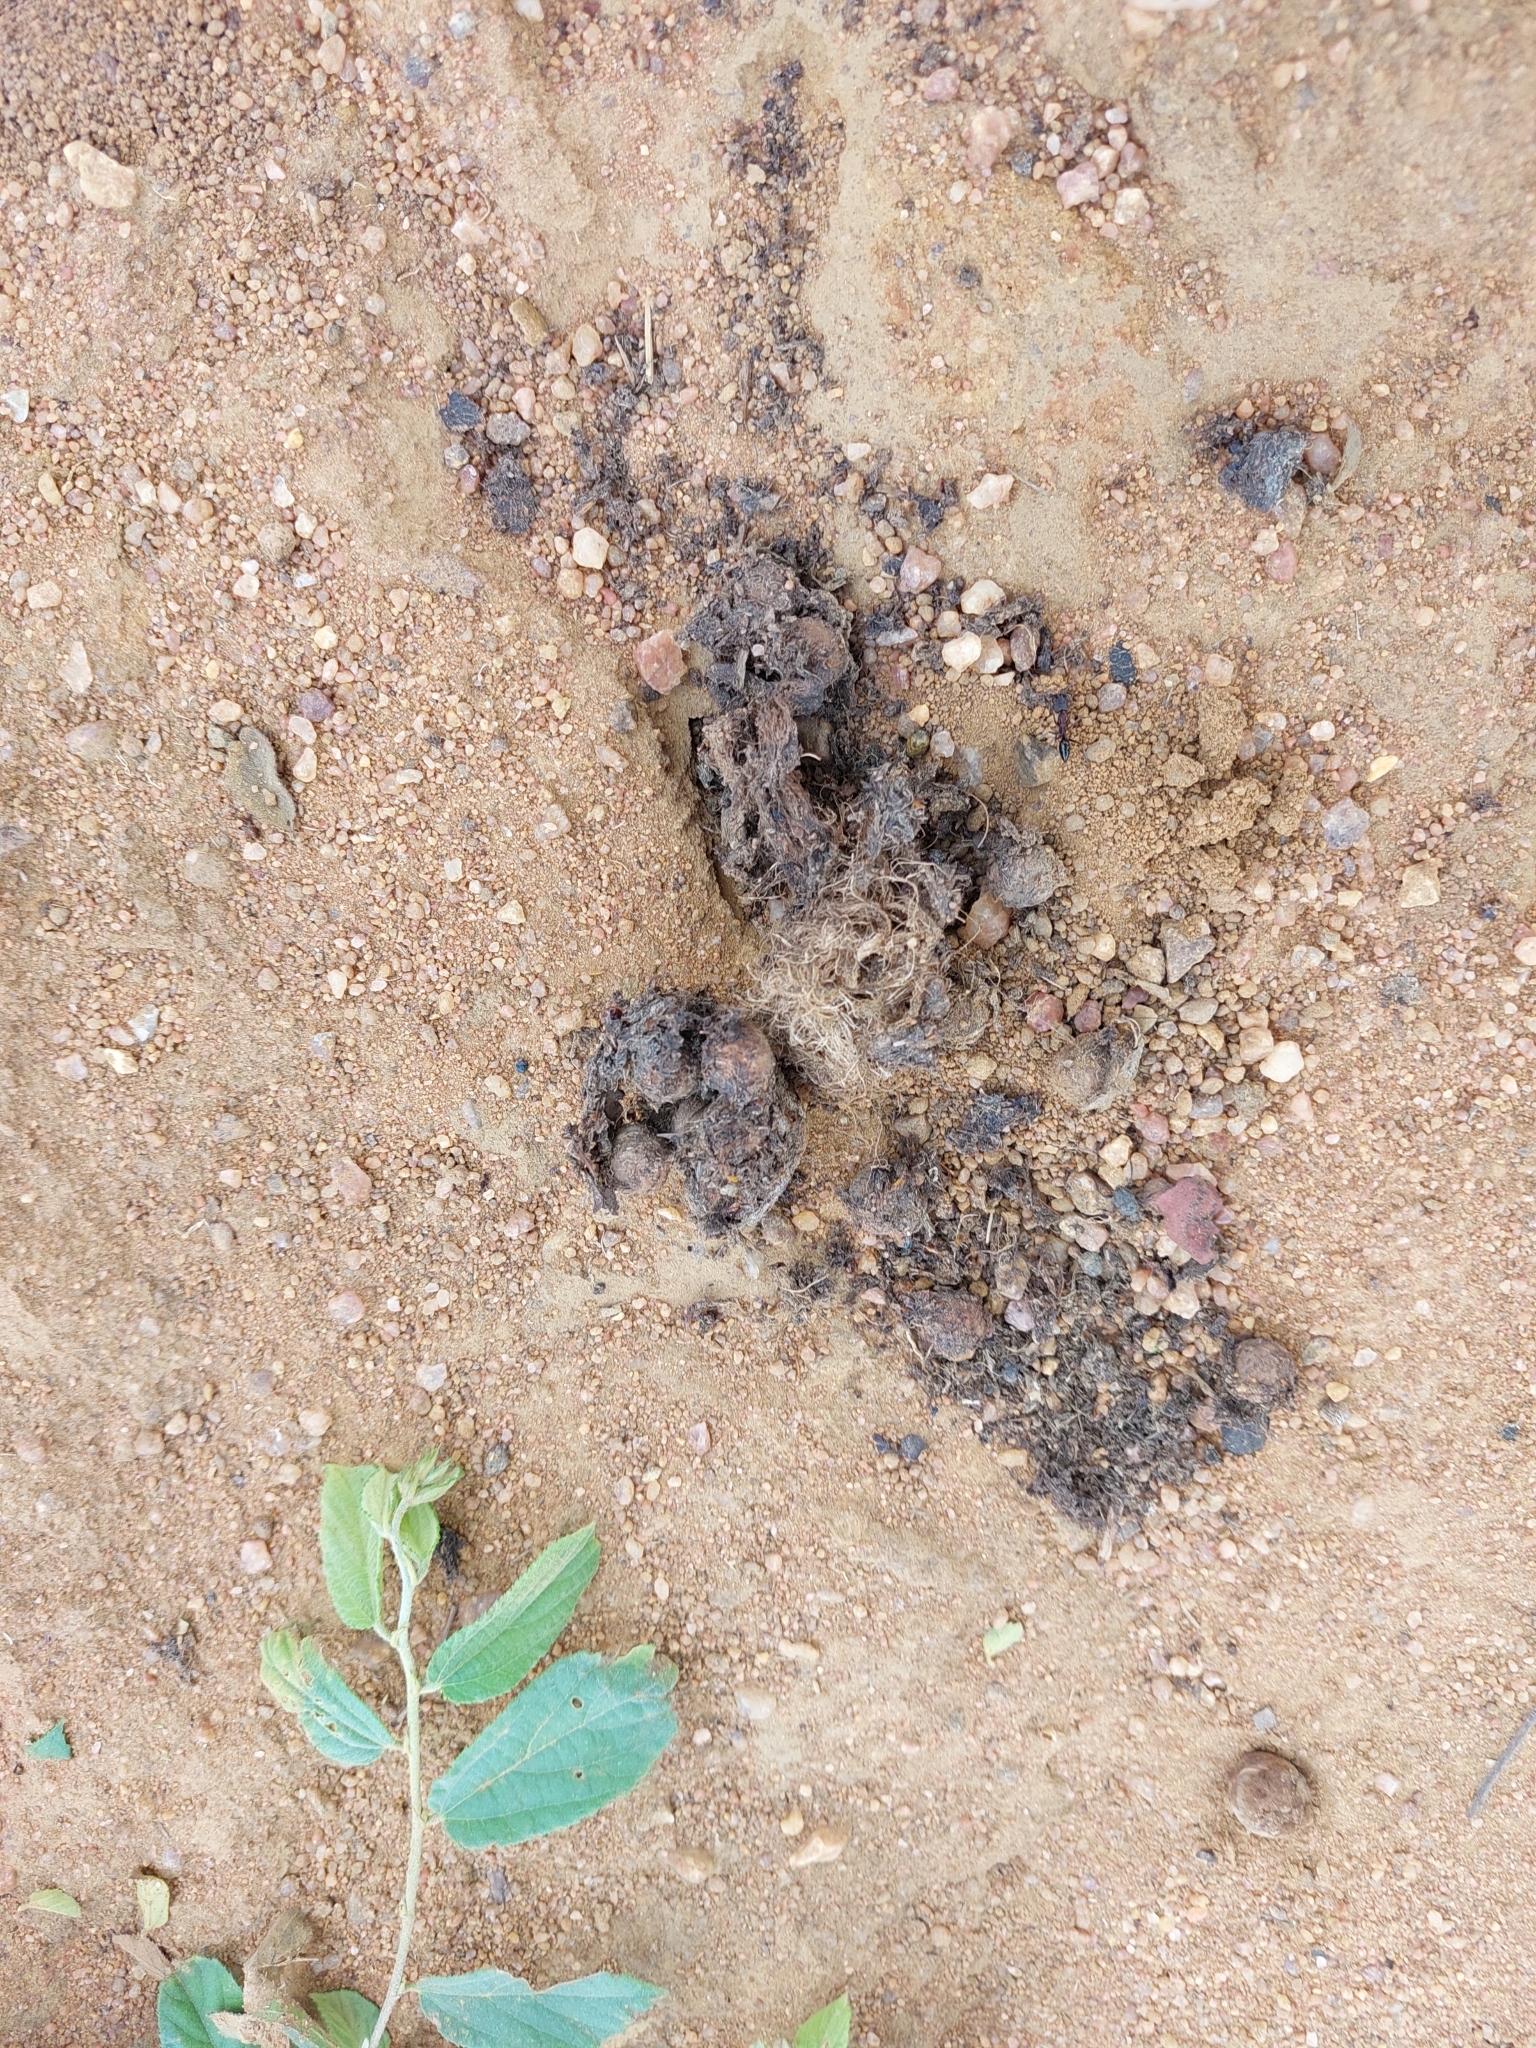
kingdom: Animalia
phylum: Chordata
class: Mammalia
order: Primates
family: Cercopithecidae
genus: Papio
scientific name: Papio ursinus
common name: Chacma baboon
